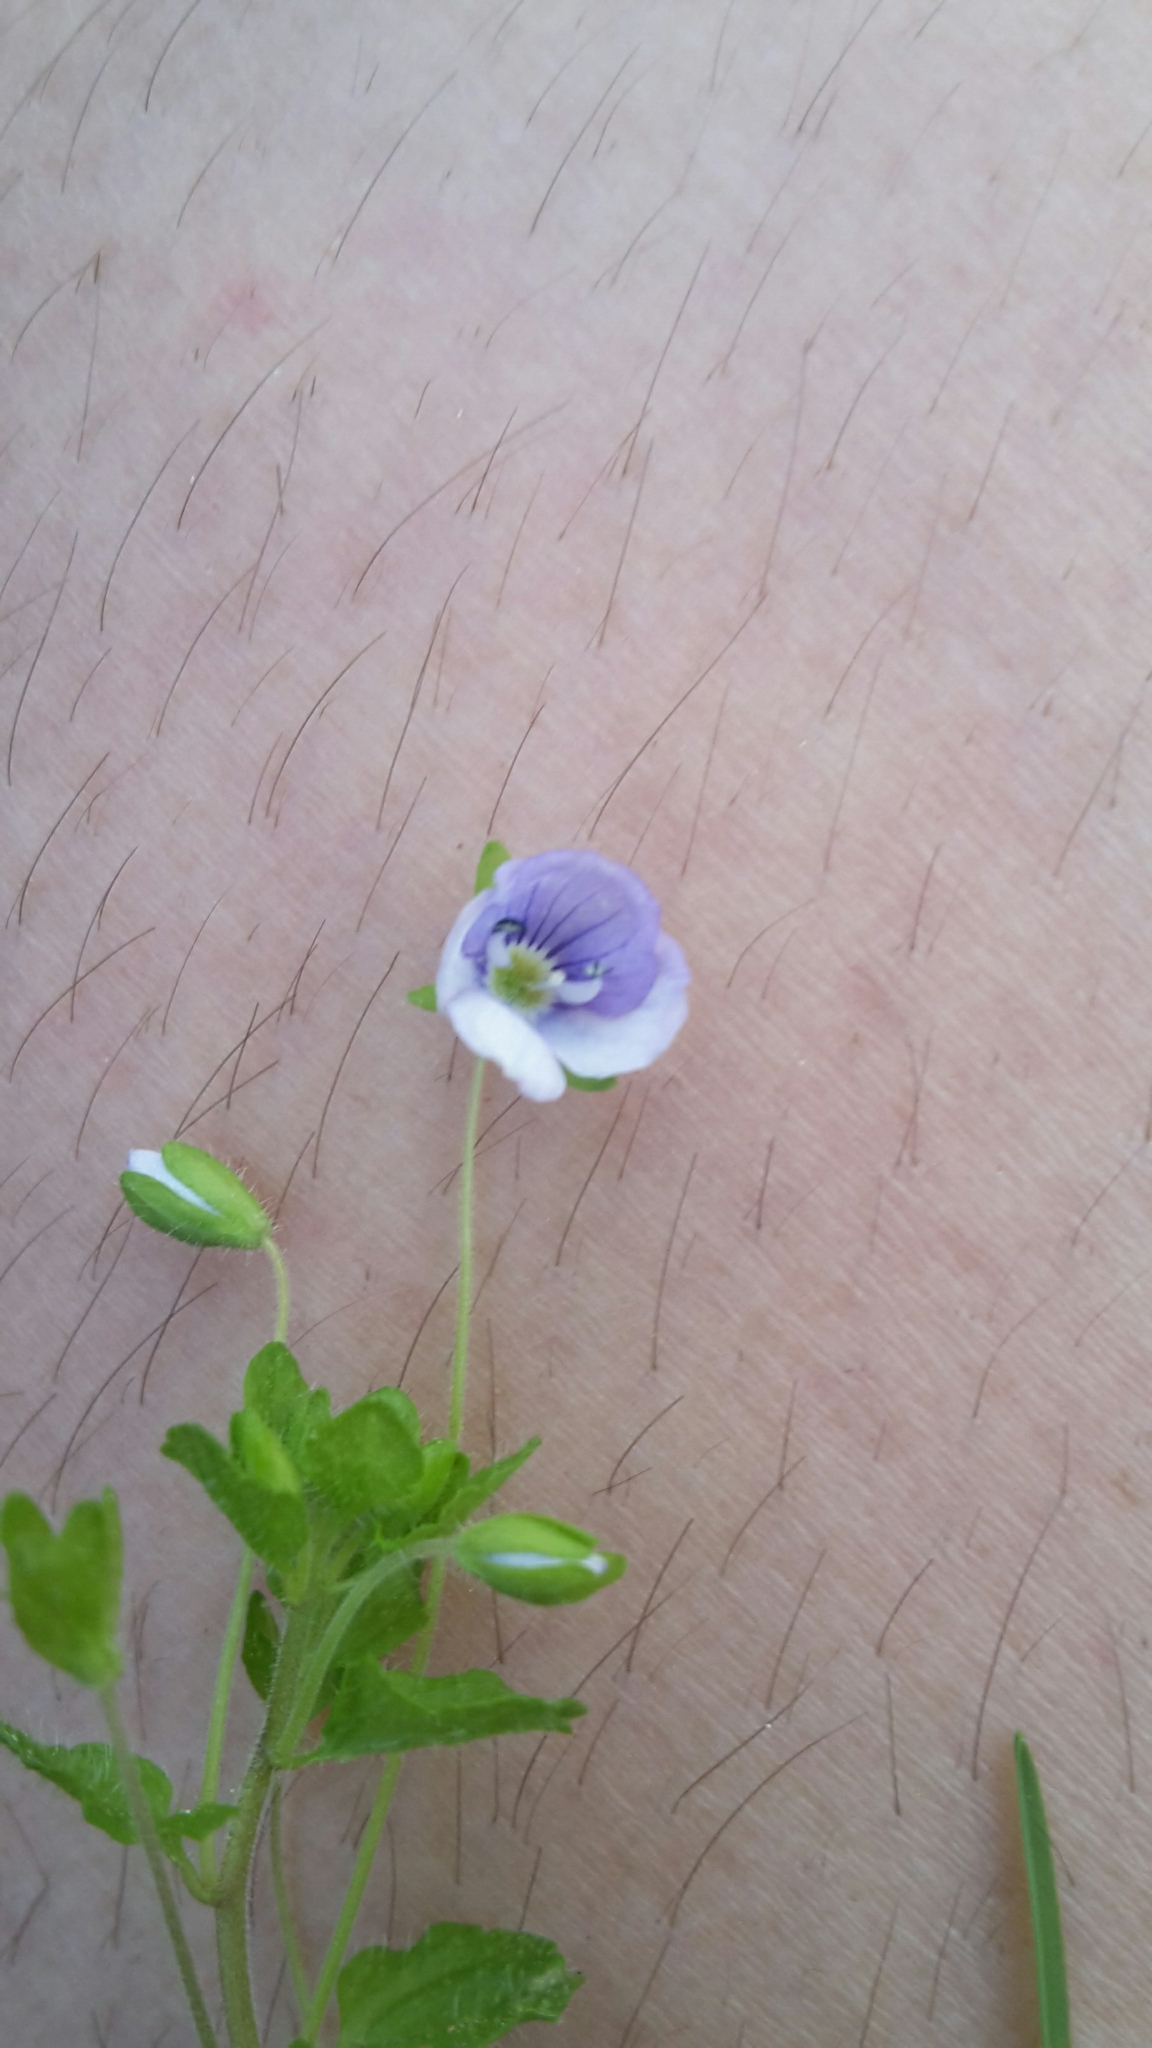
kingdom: Plantae
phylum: Tracheophyta
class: Magnoliopsida
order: Lamiales
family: Plantaginaceae
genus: Veronica
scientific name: Veronica filiformis
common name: Slender speedwell
